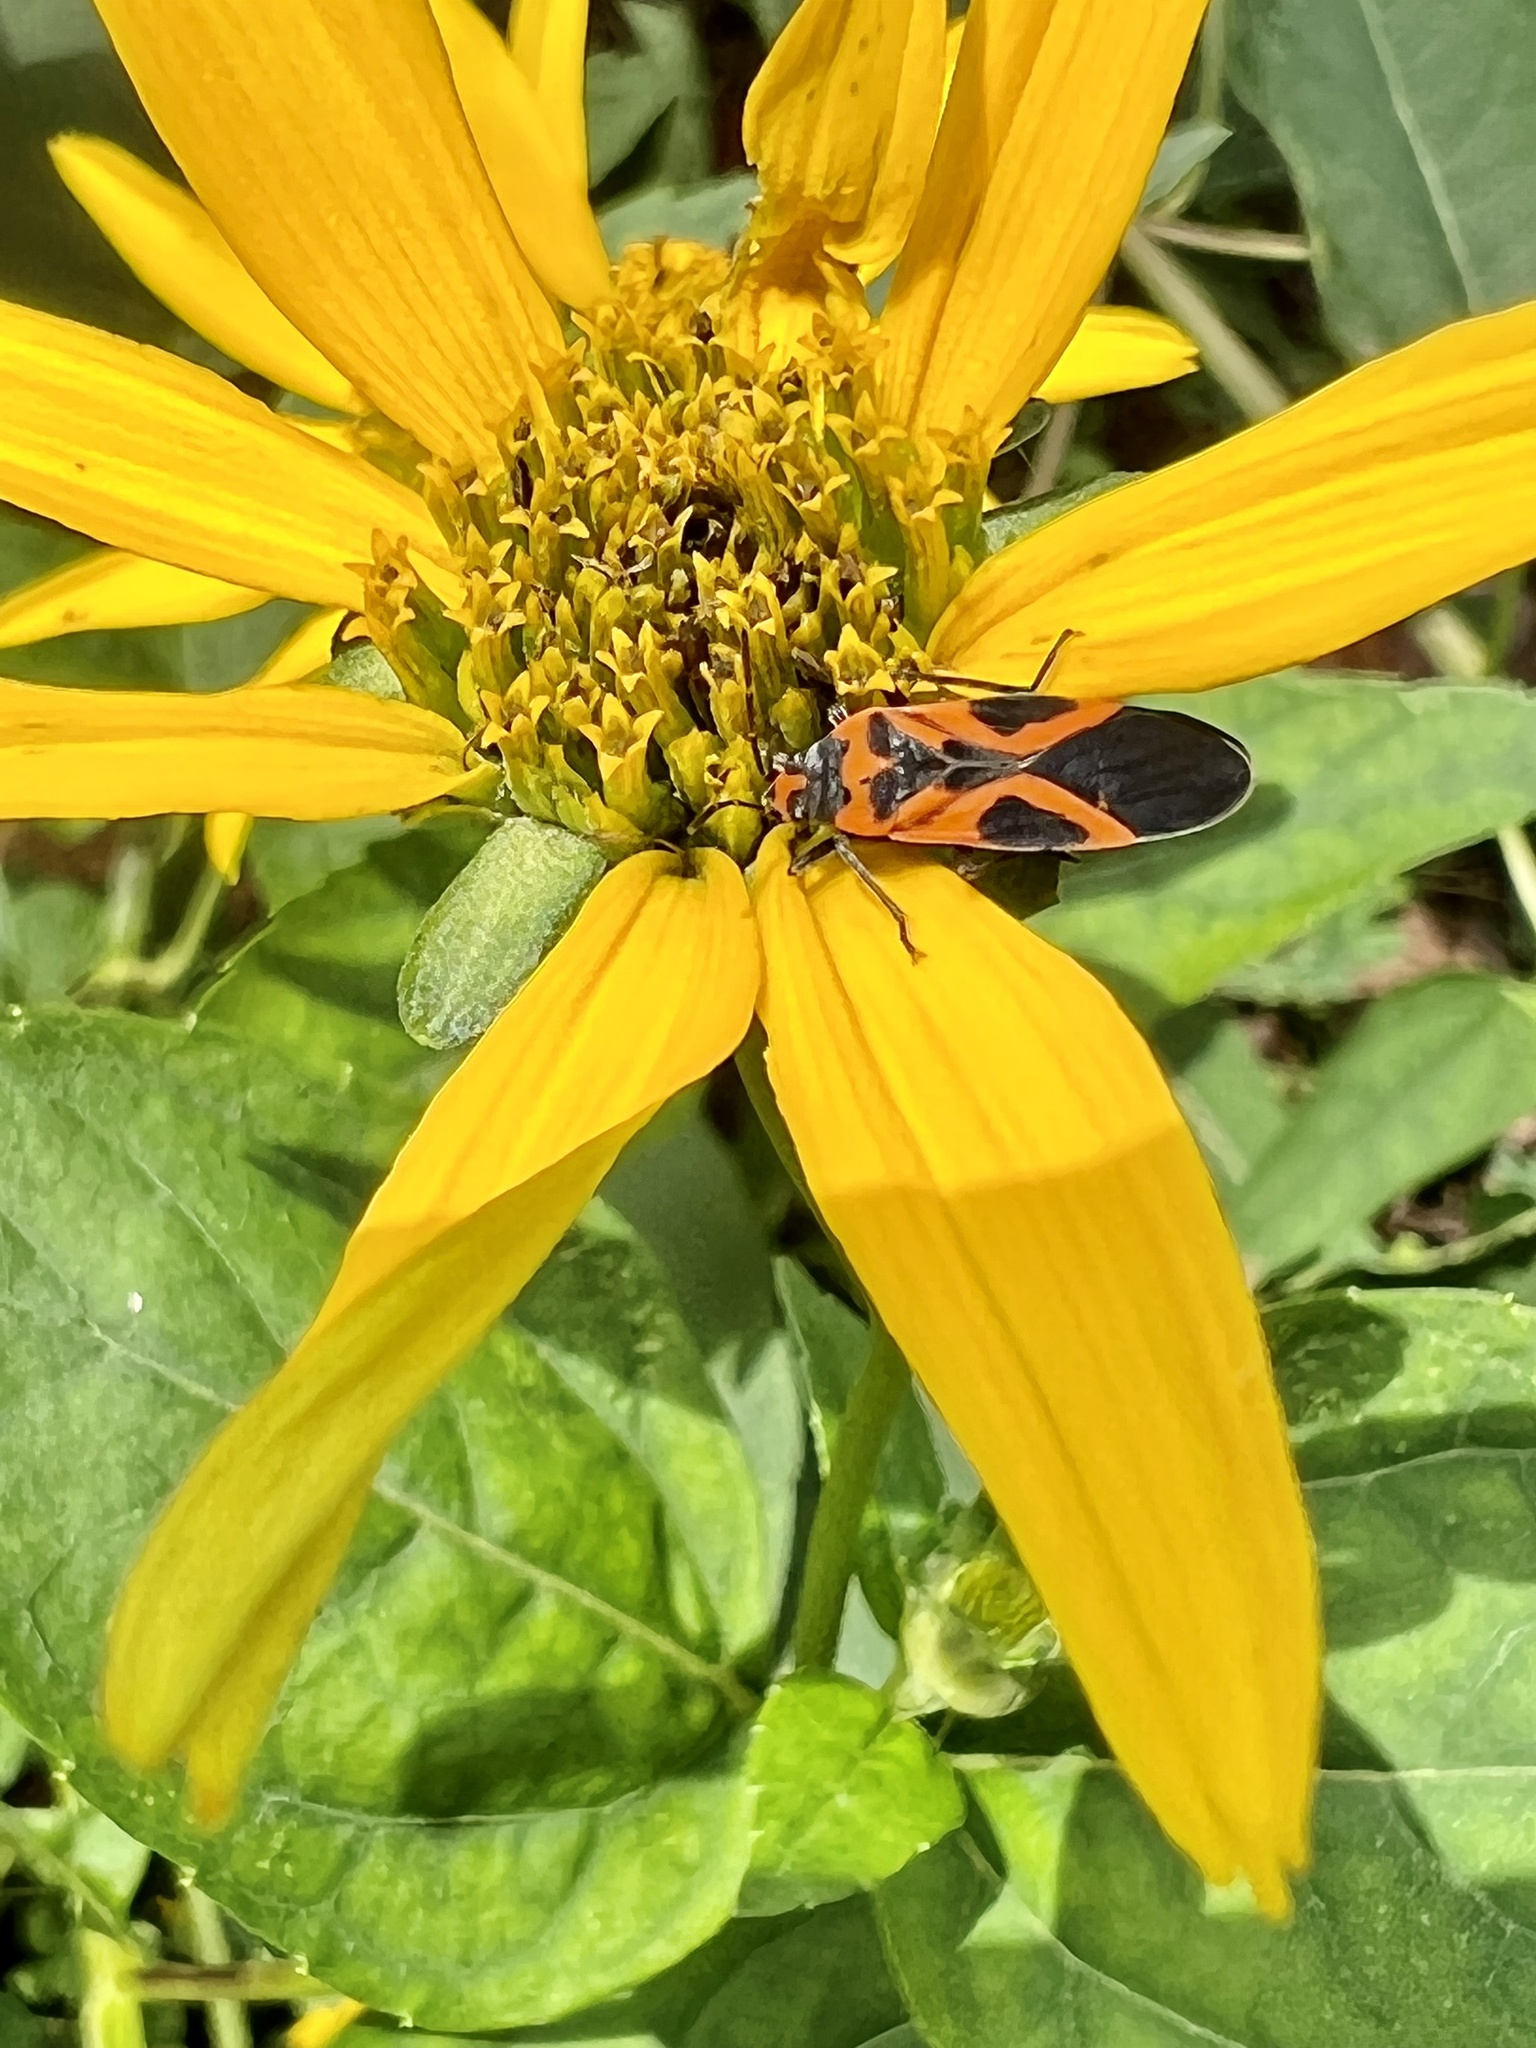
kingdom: Animalia
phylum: Arthropoda
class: Insecta
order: Hemiptera
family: Lygaeidae
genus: Lygaeus
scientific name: Lygaeus turcicus
